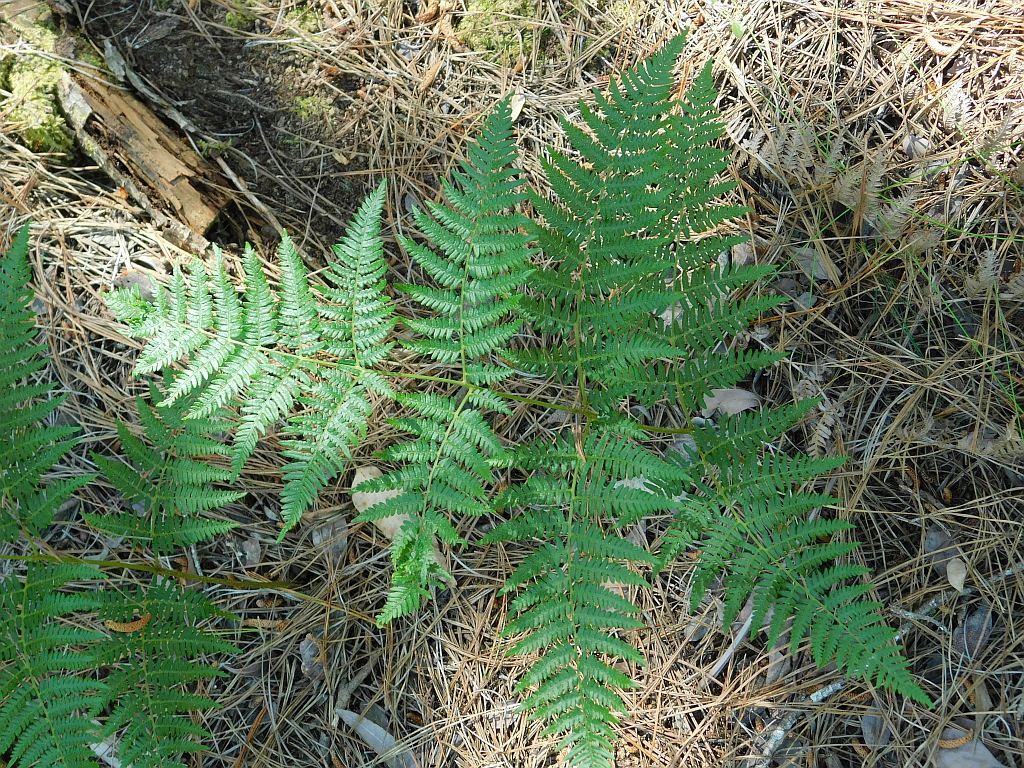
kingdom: Plantae
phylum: Tracheophyta
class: Polypodiopsida
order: Polypodiales
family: Dennstaedtiaceae
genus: Pteridium
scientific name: Pteridium aquilinum
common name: Bracken
